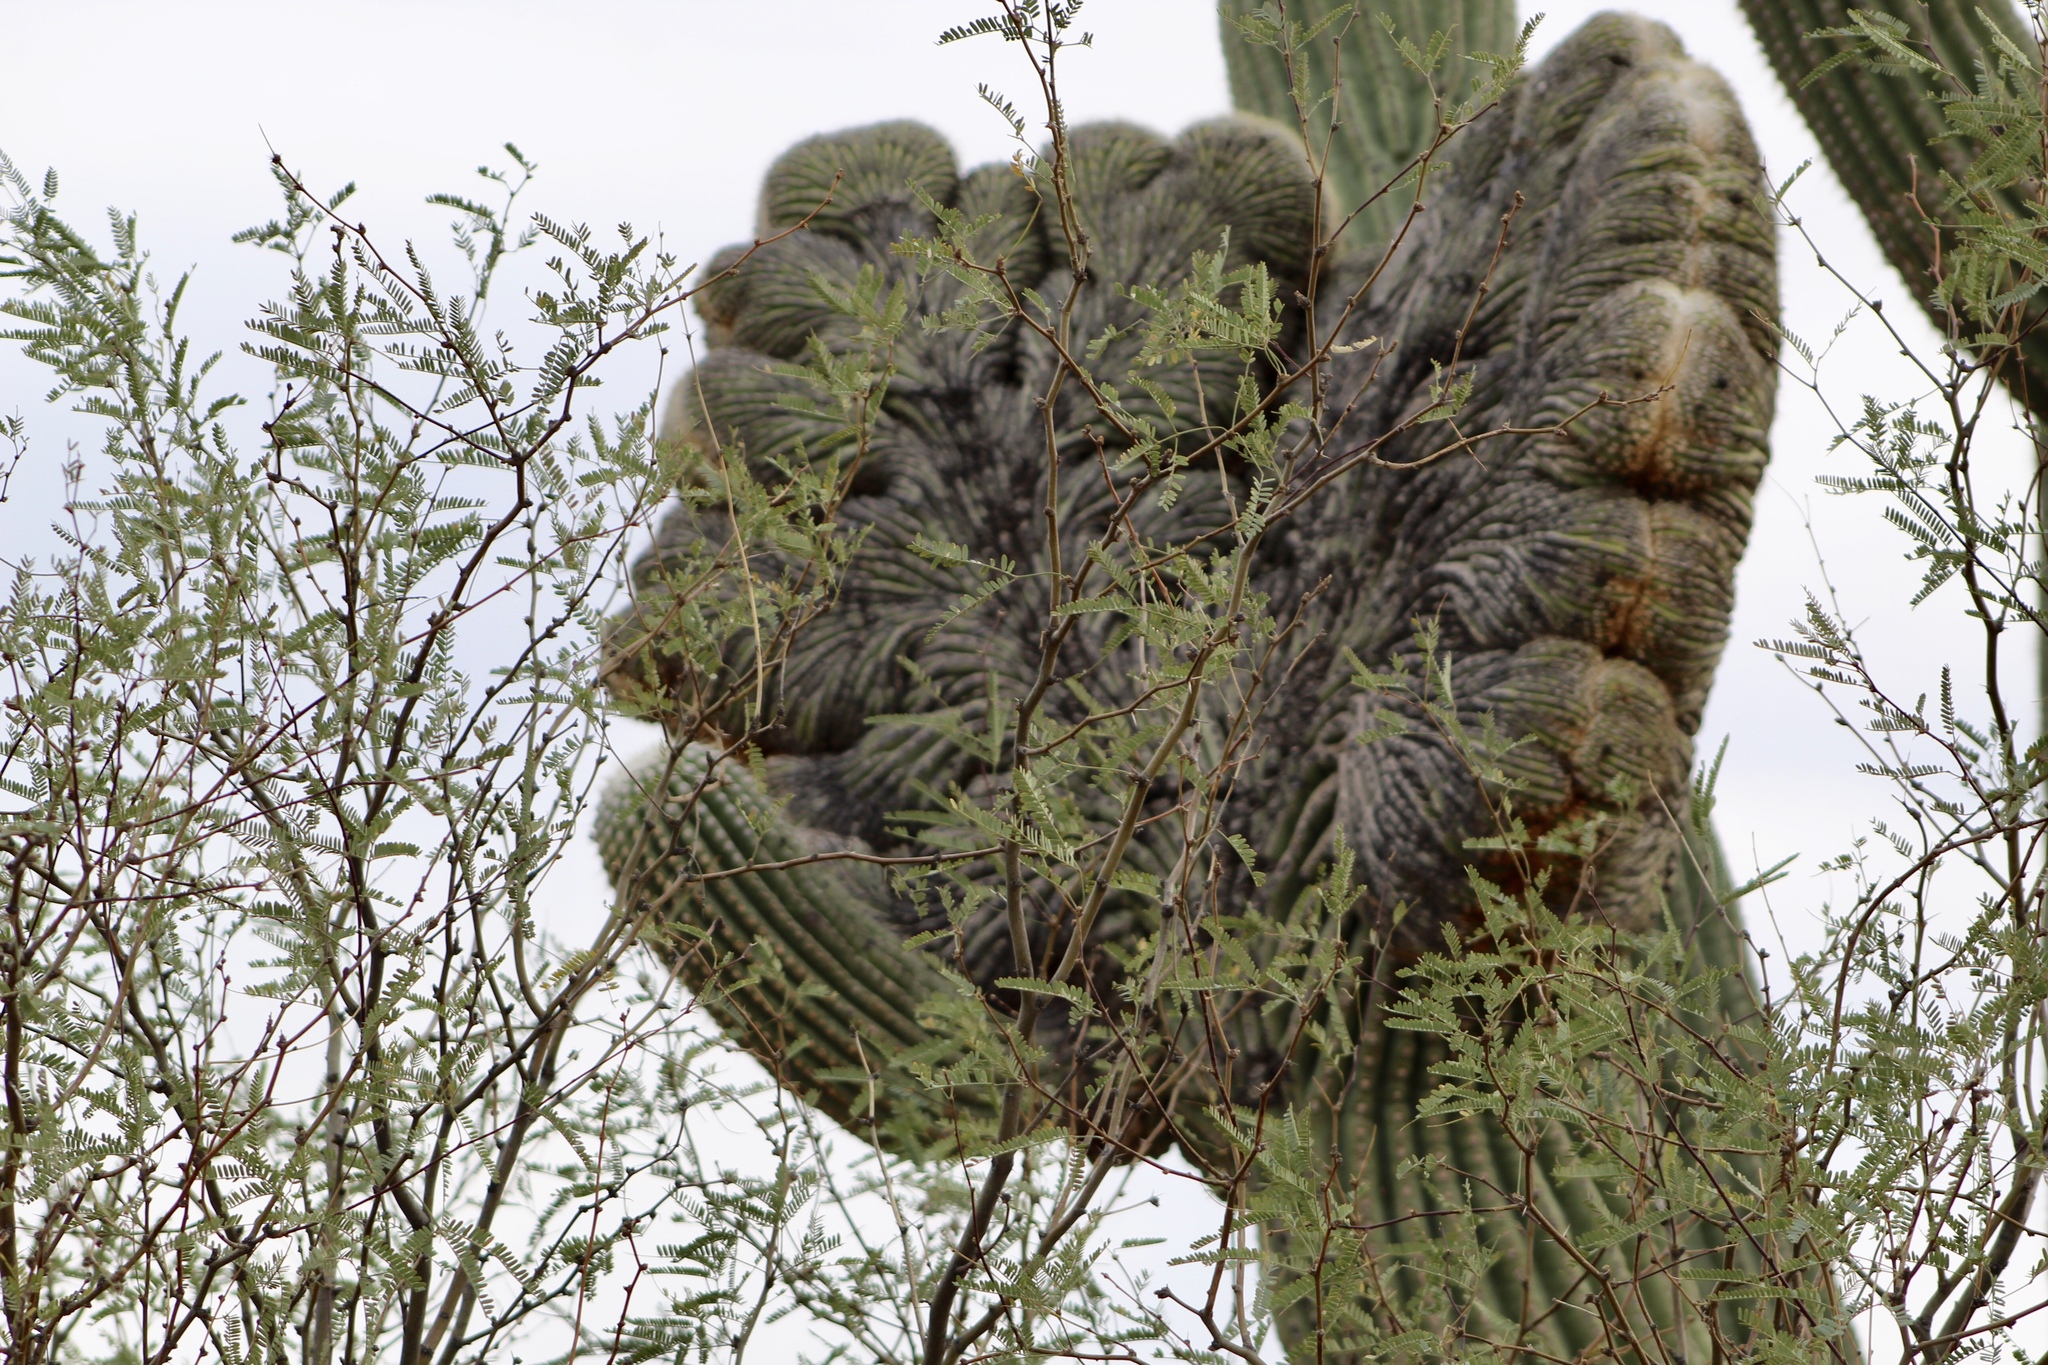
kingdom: Plantae
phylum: Tracheophyta
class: Magnoliopsida
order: Caryophyllales
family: Cactaceae
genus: Carnegiea
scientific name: Carnegiea gigantea
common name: Saguaro
